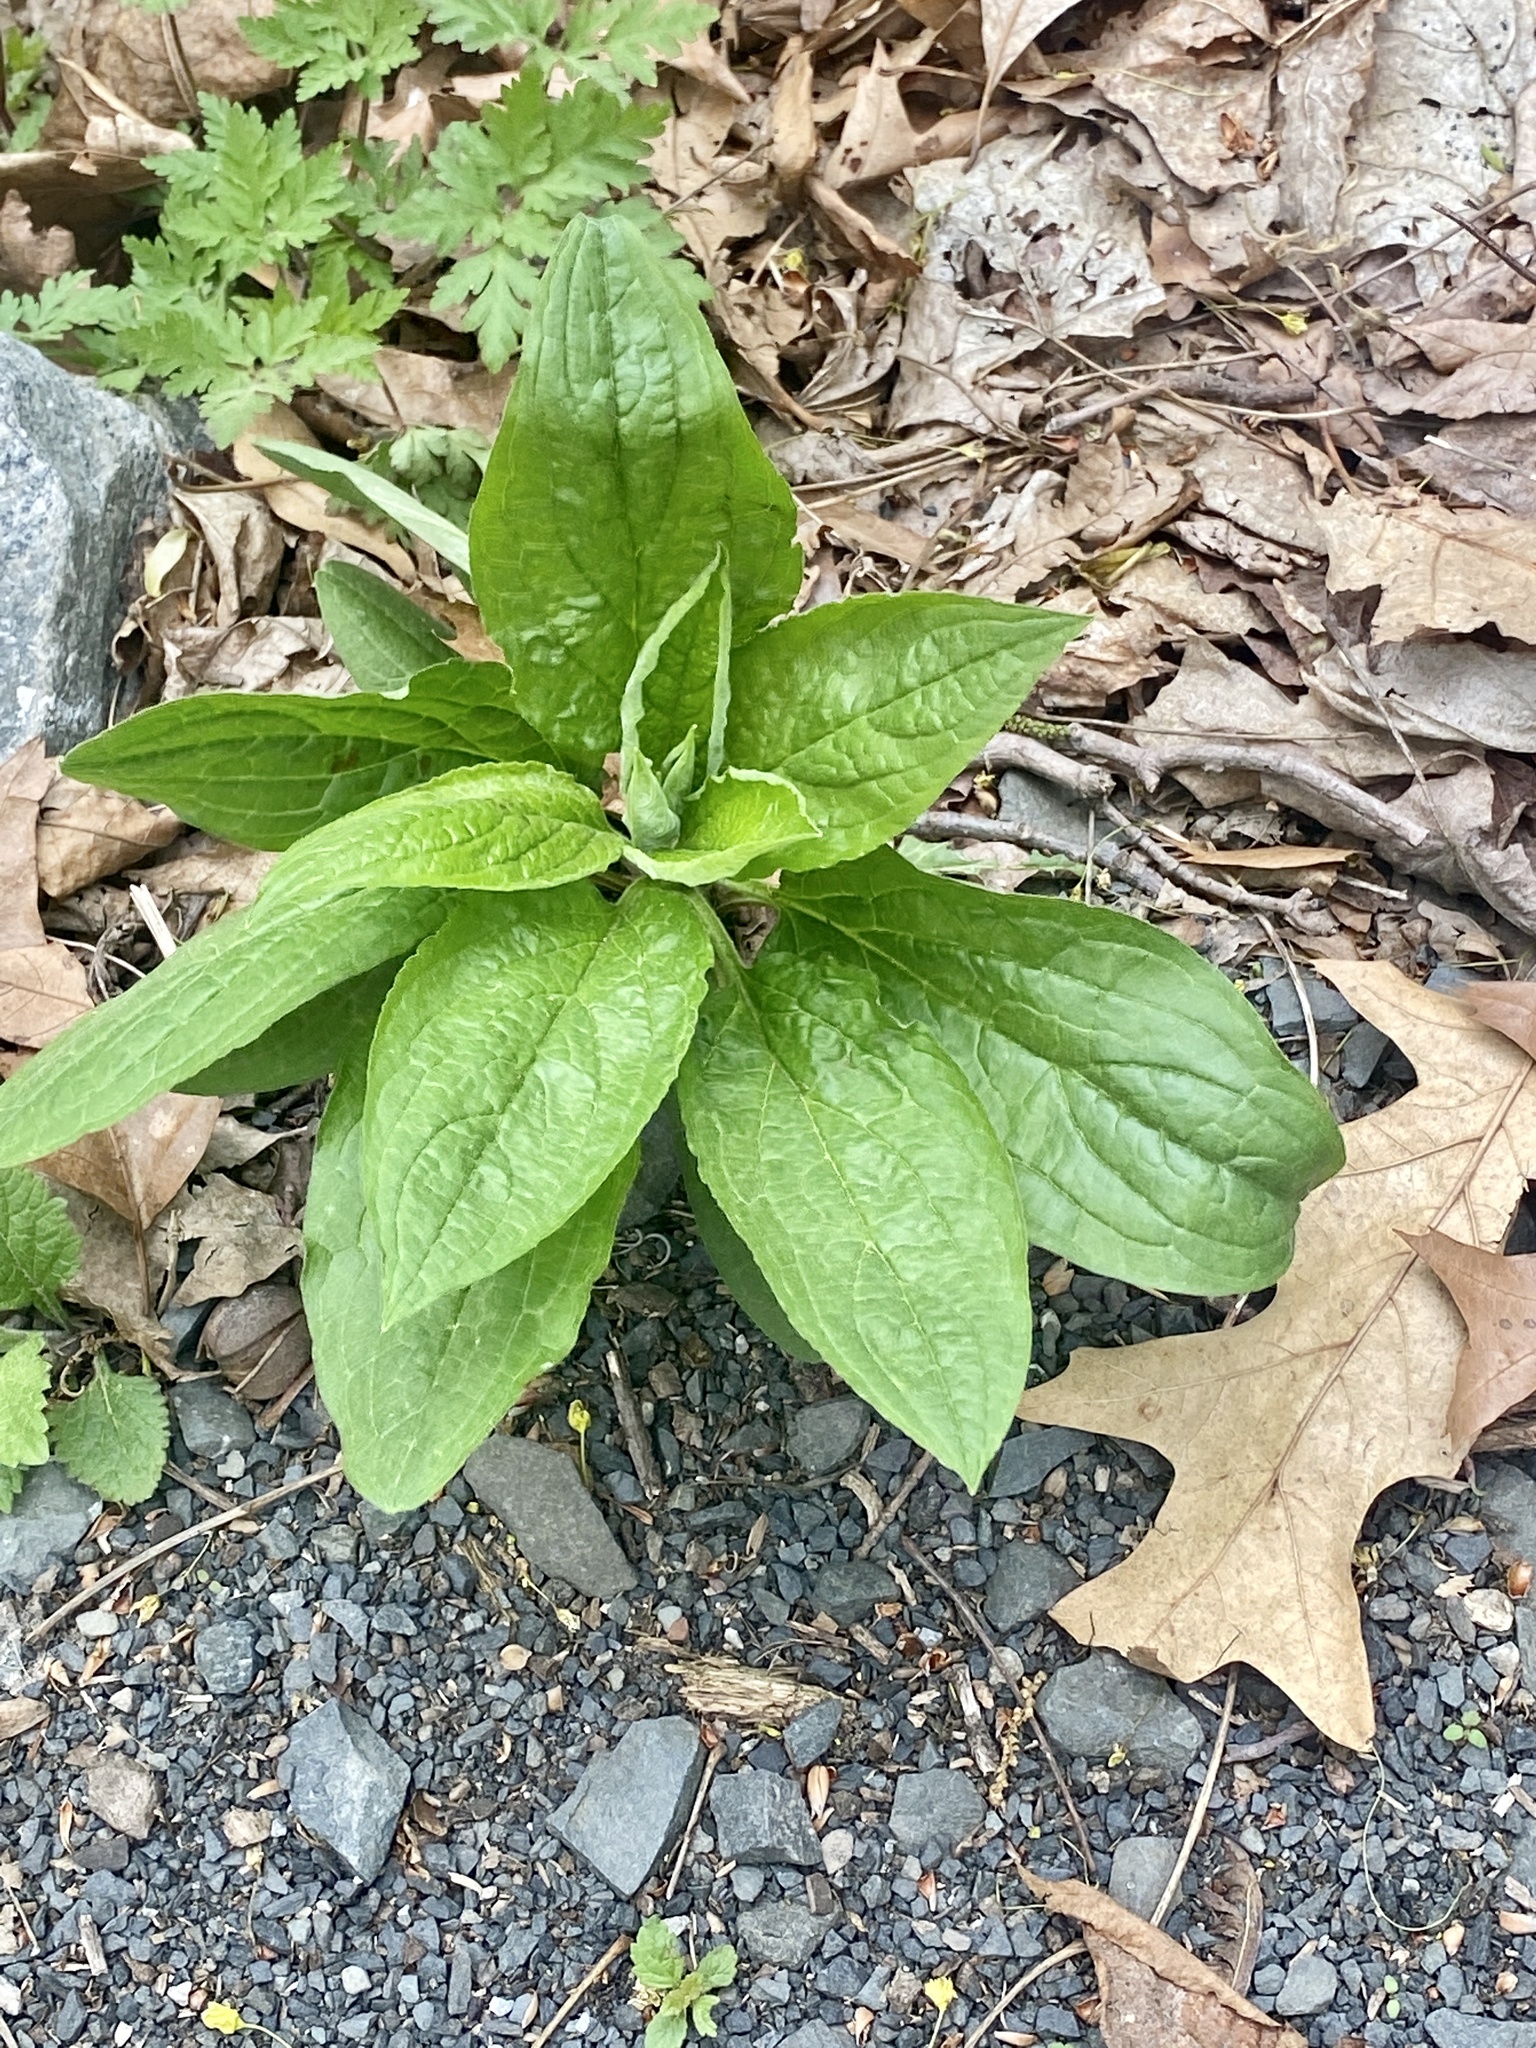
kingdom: Plantae
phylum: Tracheophyta
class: Magnoliopsida
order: Boraginales
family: Boraginaceae
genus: Hackelia
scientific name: Hackelia virginiana
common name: Beggar's-lice
